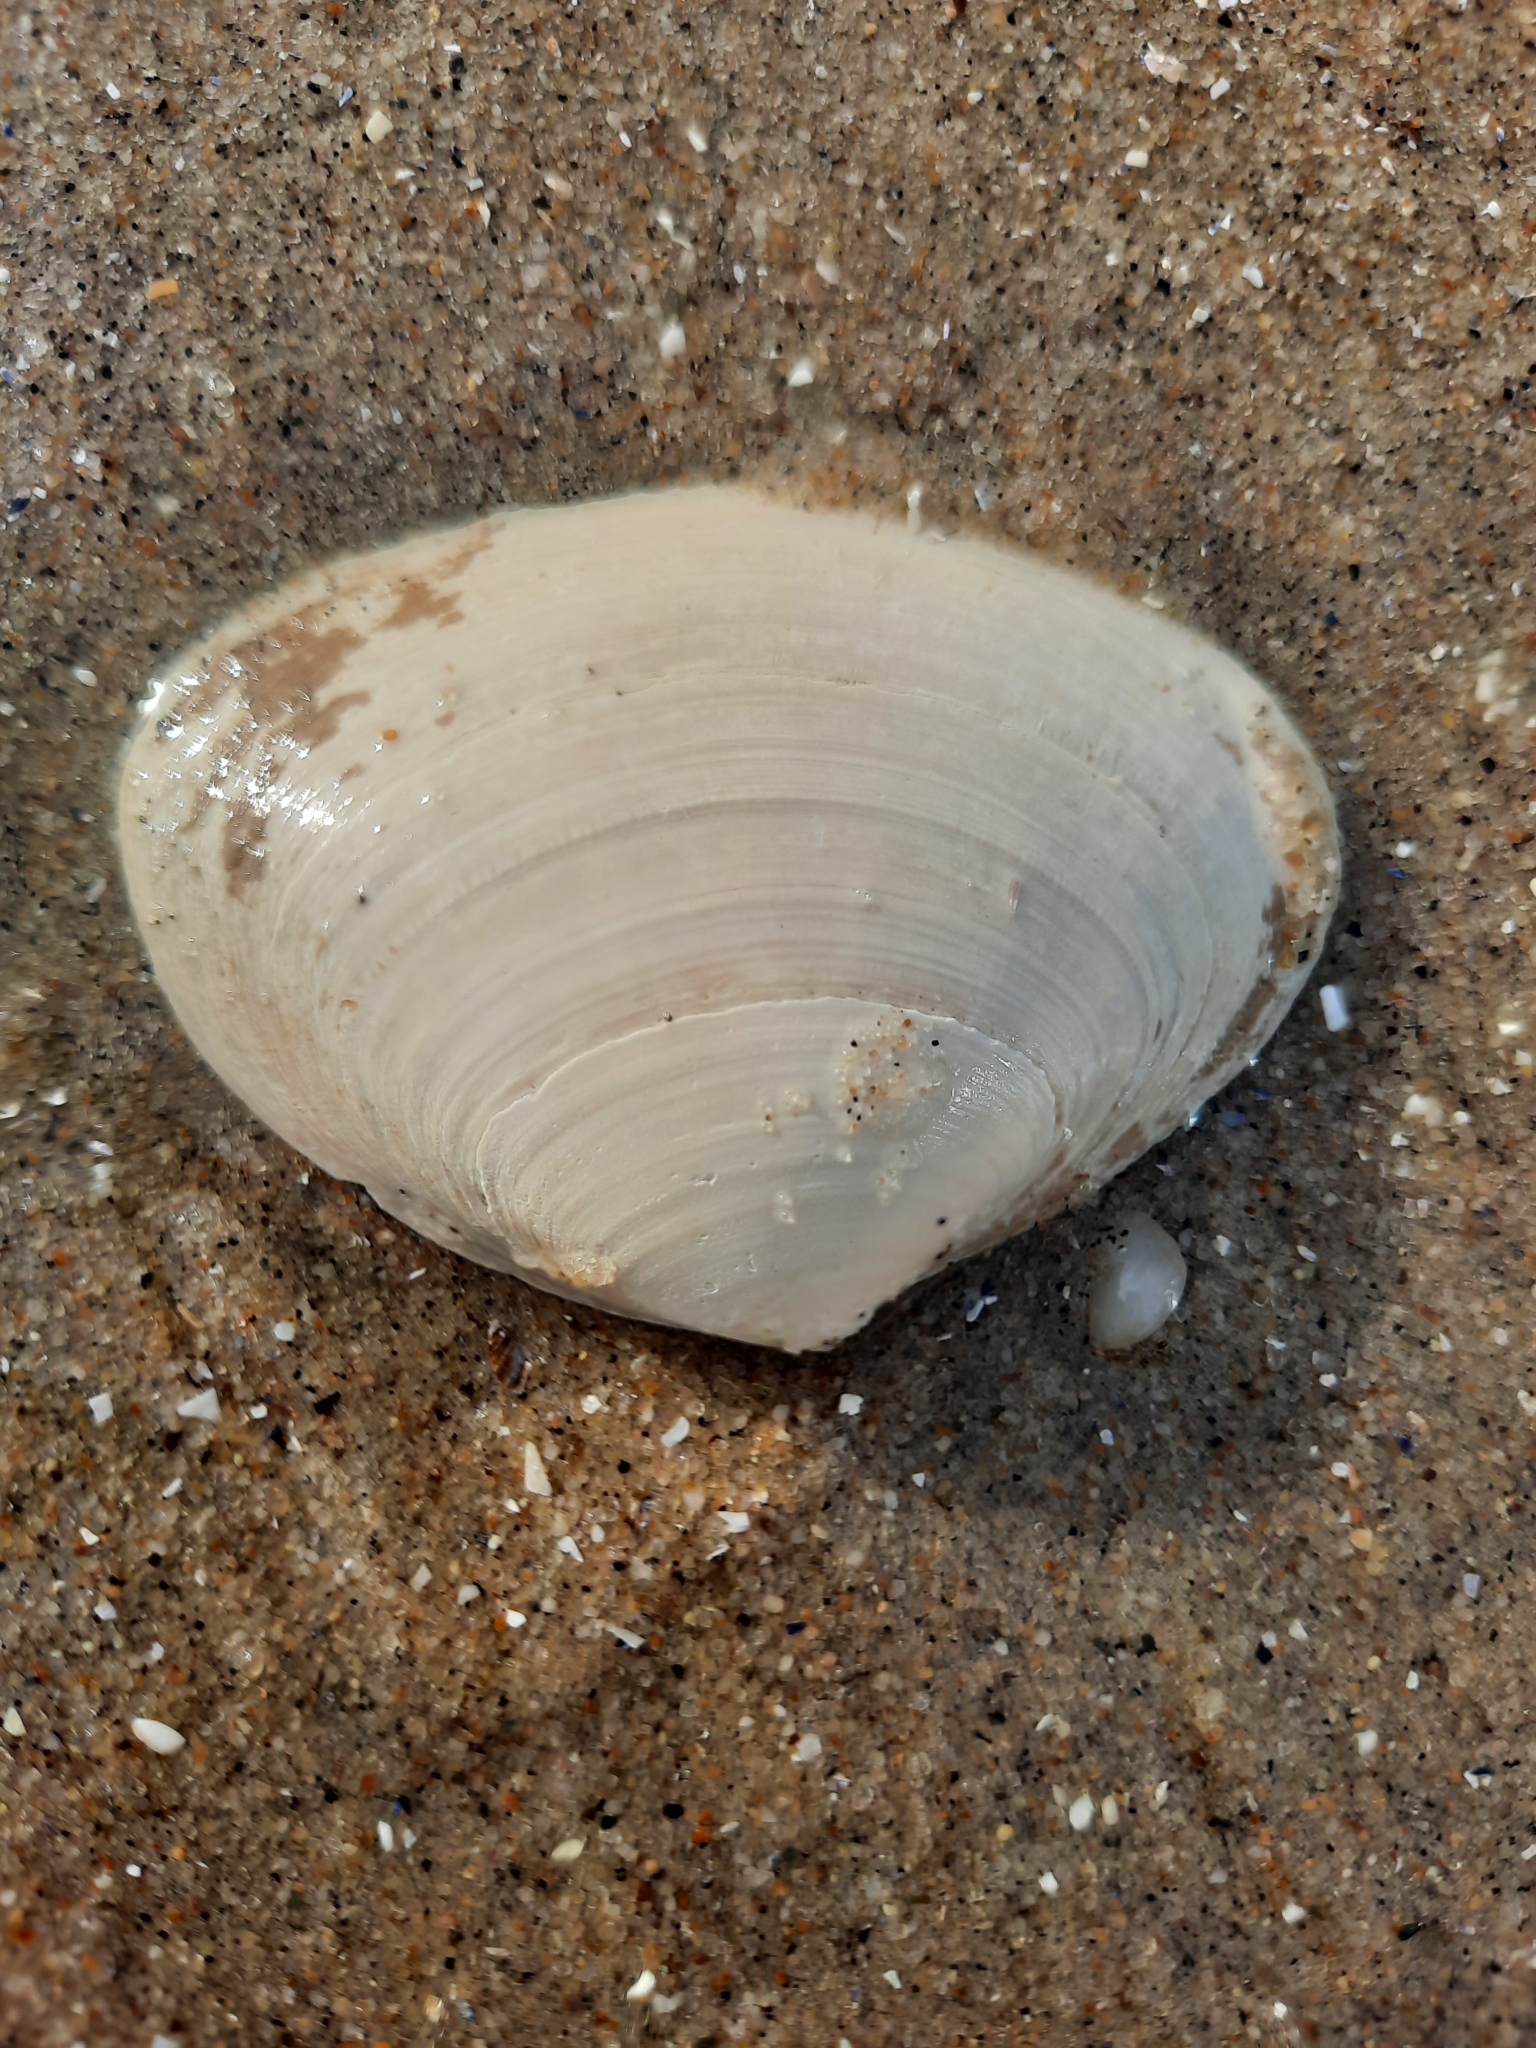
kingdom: Animalia
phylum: Mollusca
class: Bivalvia
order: Venerida
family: Mactridae
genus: Spisula
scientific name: Spisula solidissima
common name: Atlantic surf clam
